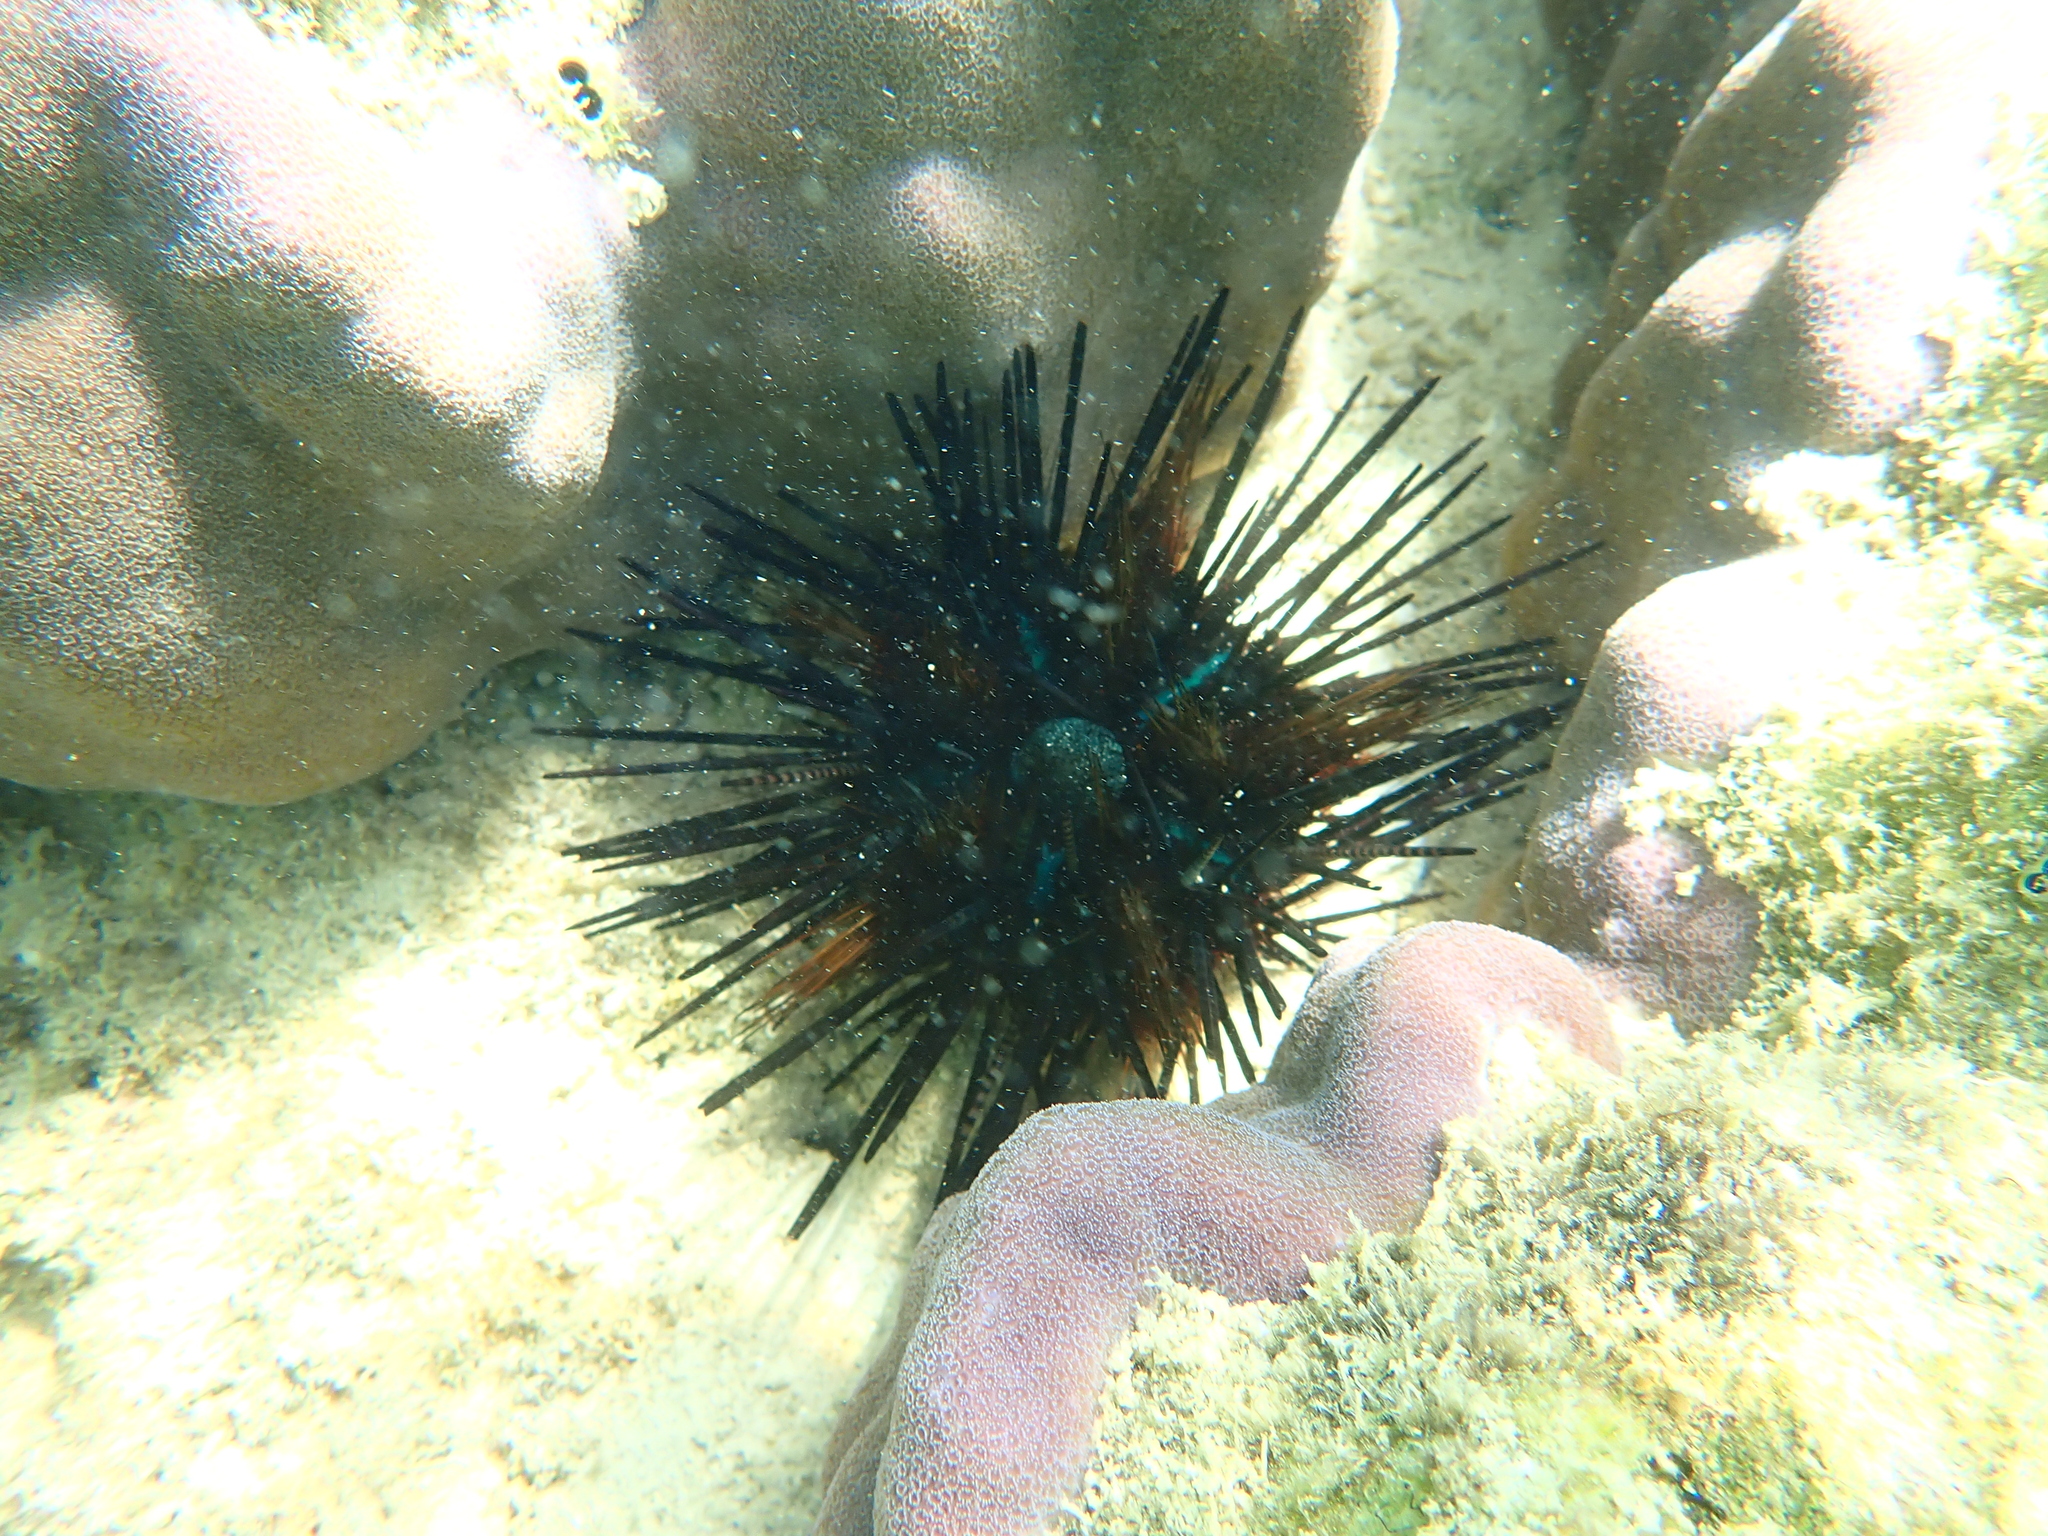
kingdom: Animalia
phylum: Echinodermata
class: Echinoidea
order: Diadematoida
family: Diadematidae
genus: Echinothrix
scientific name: Echinothrix calamaris
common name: Banded sea urchin
